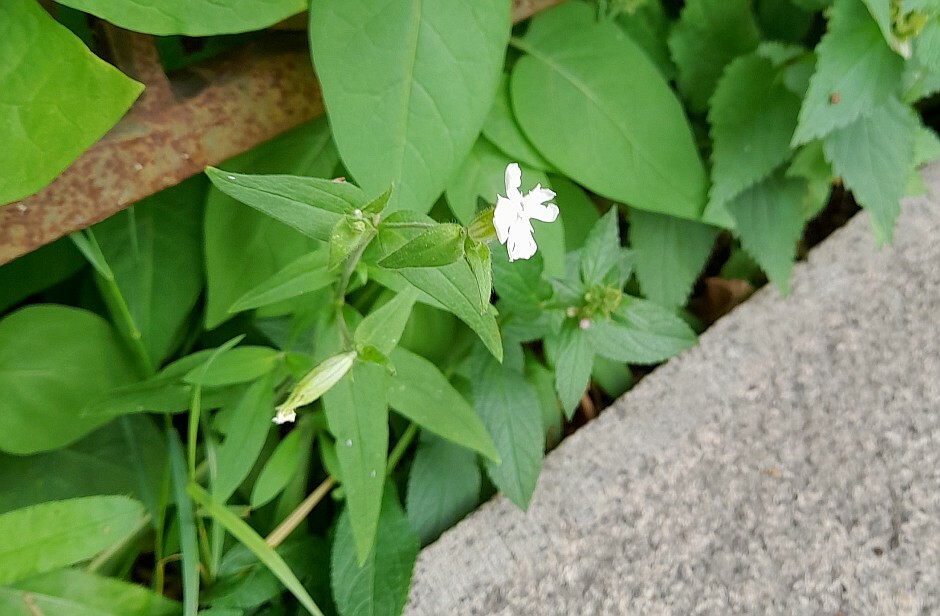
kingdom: Plantae
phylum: Tracheophyta
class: Magnoliopsida
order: Caryophyllales
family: Caryophyllaceae
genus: Silene
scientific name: Silene latifolia
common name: White campion
